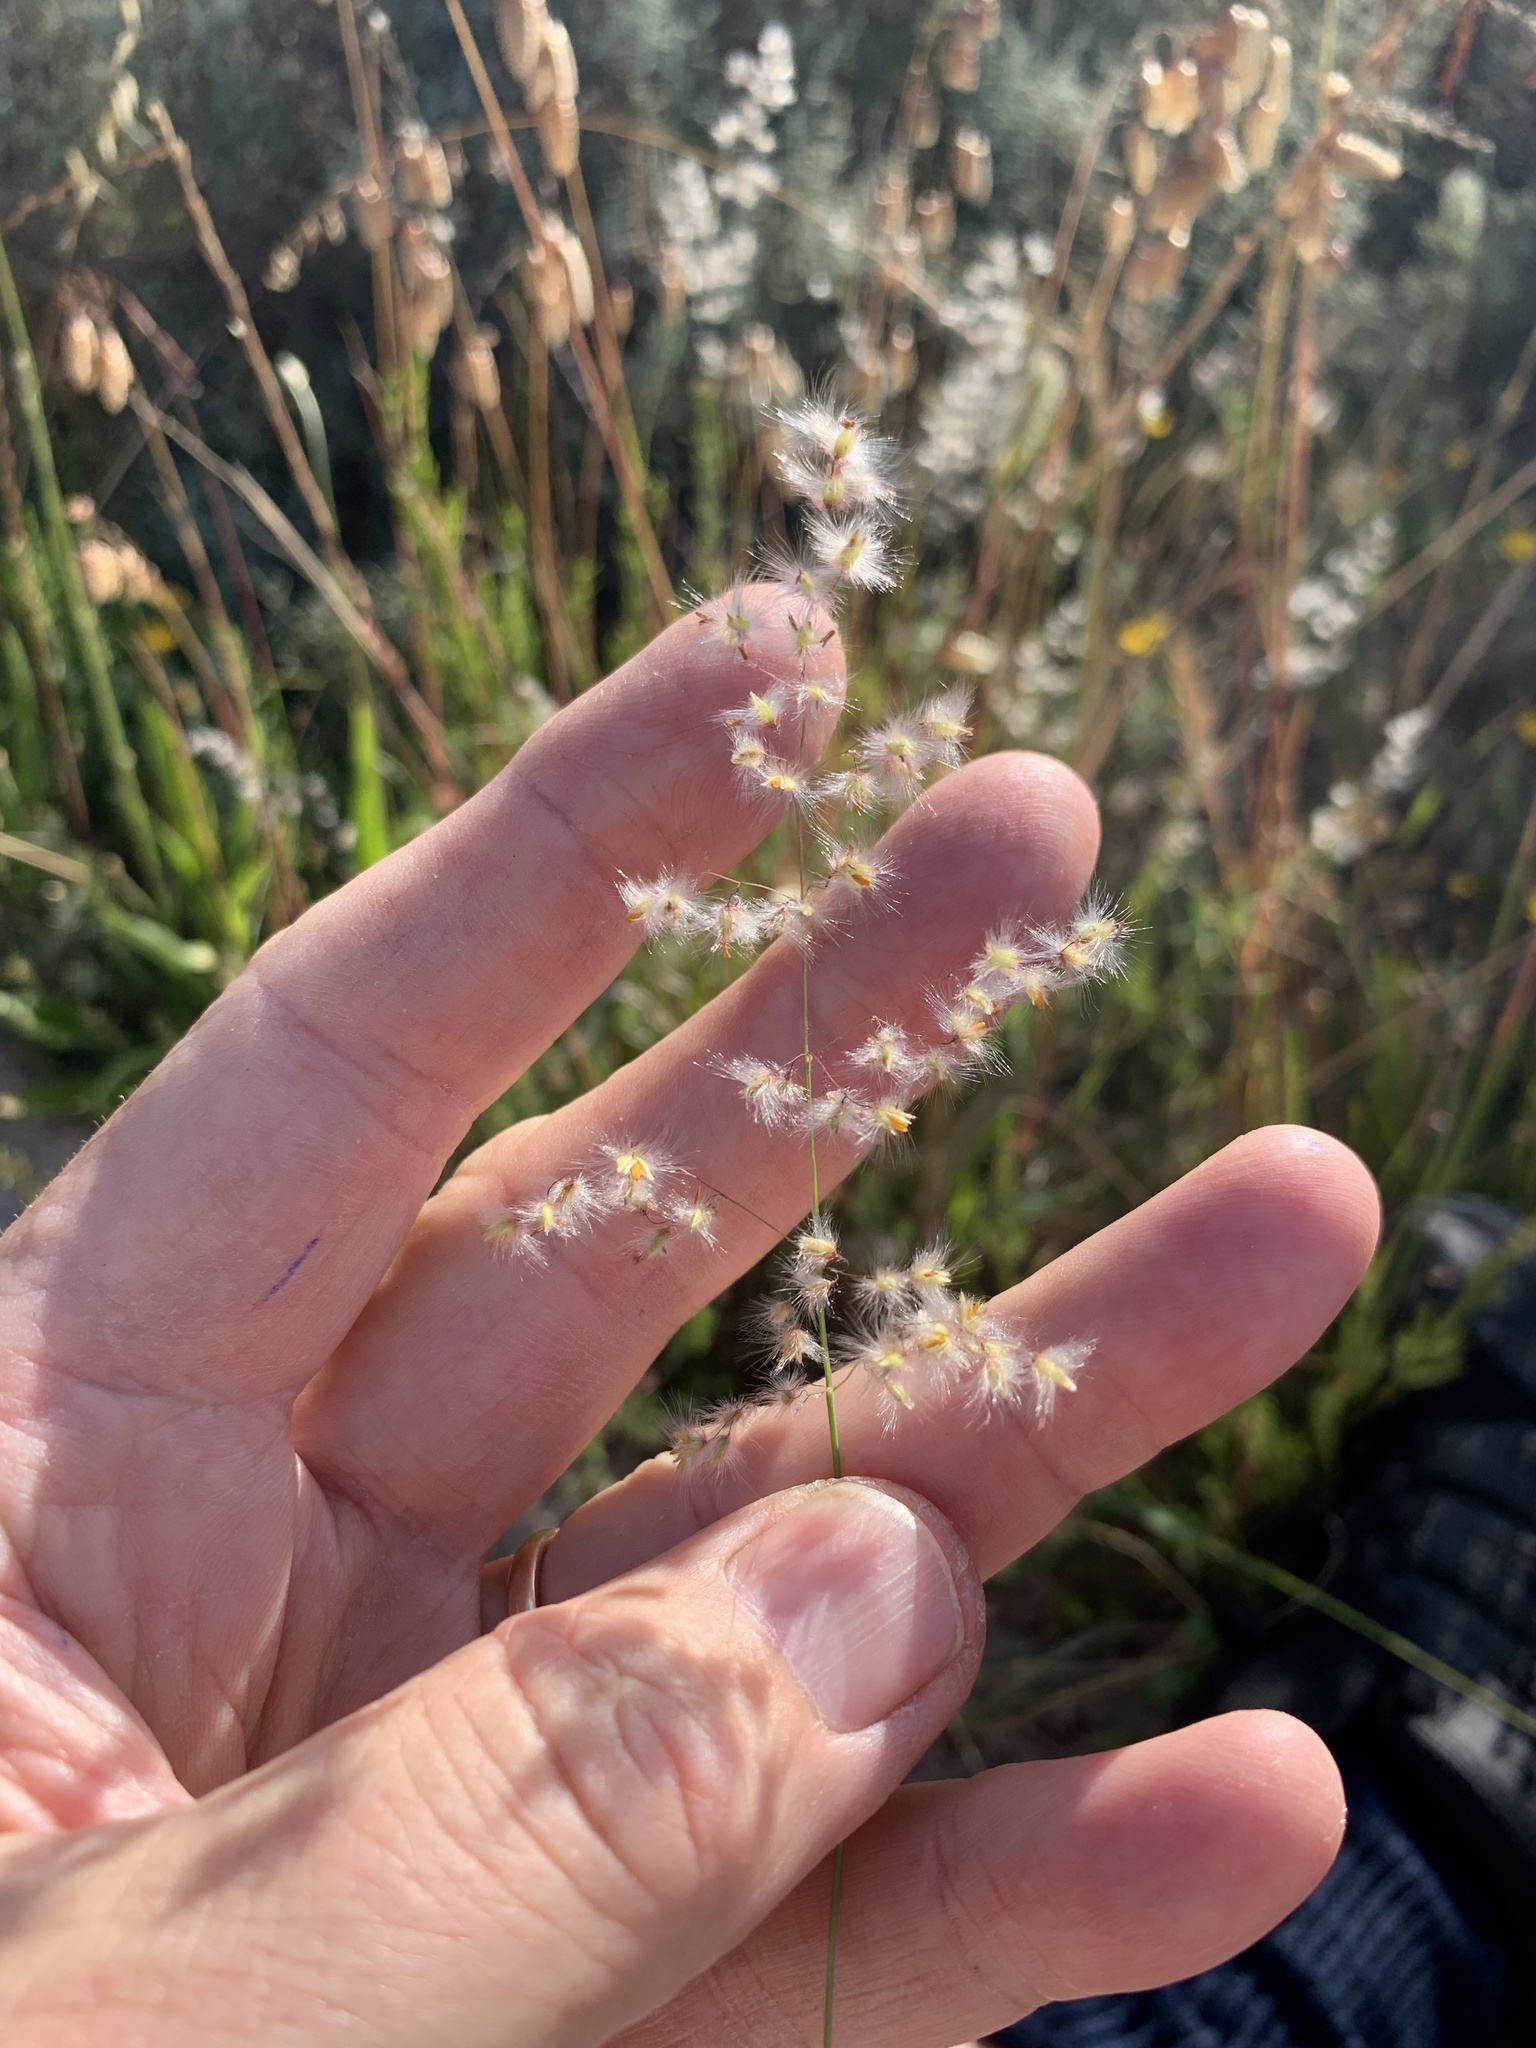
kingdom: Plantae
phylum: Tracheophyta
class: Liliopsida
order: Poales
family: Poaceae
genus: Melinis
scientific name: Melinis repens
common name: Rose natal grass
